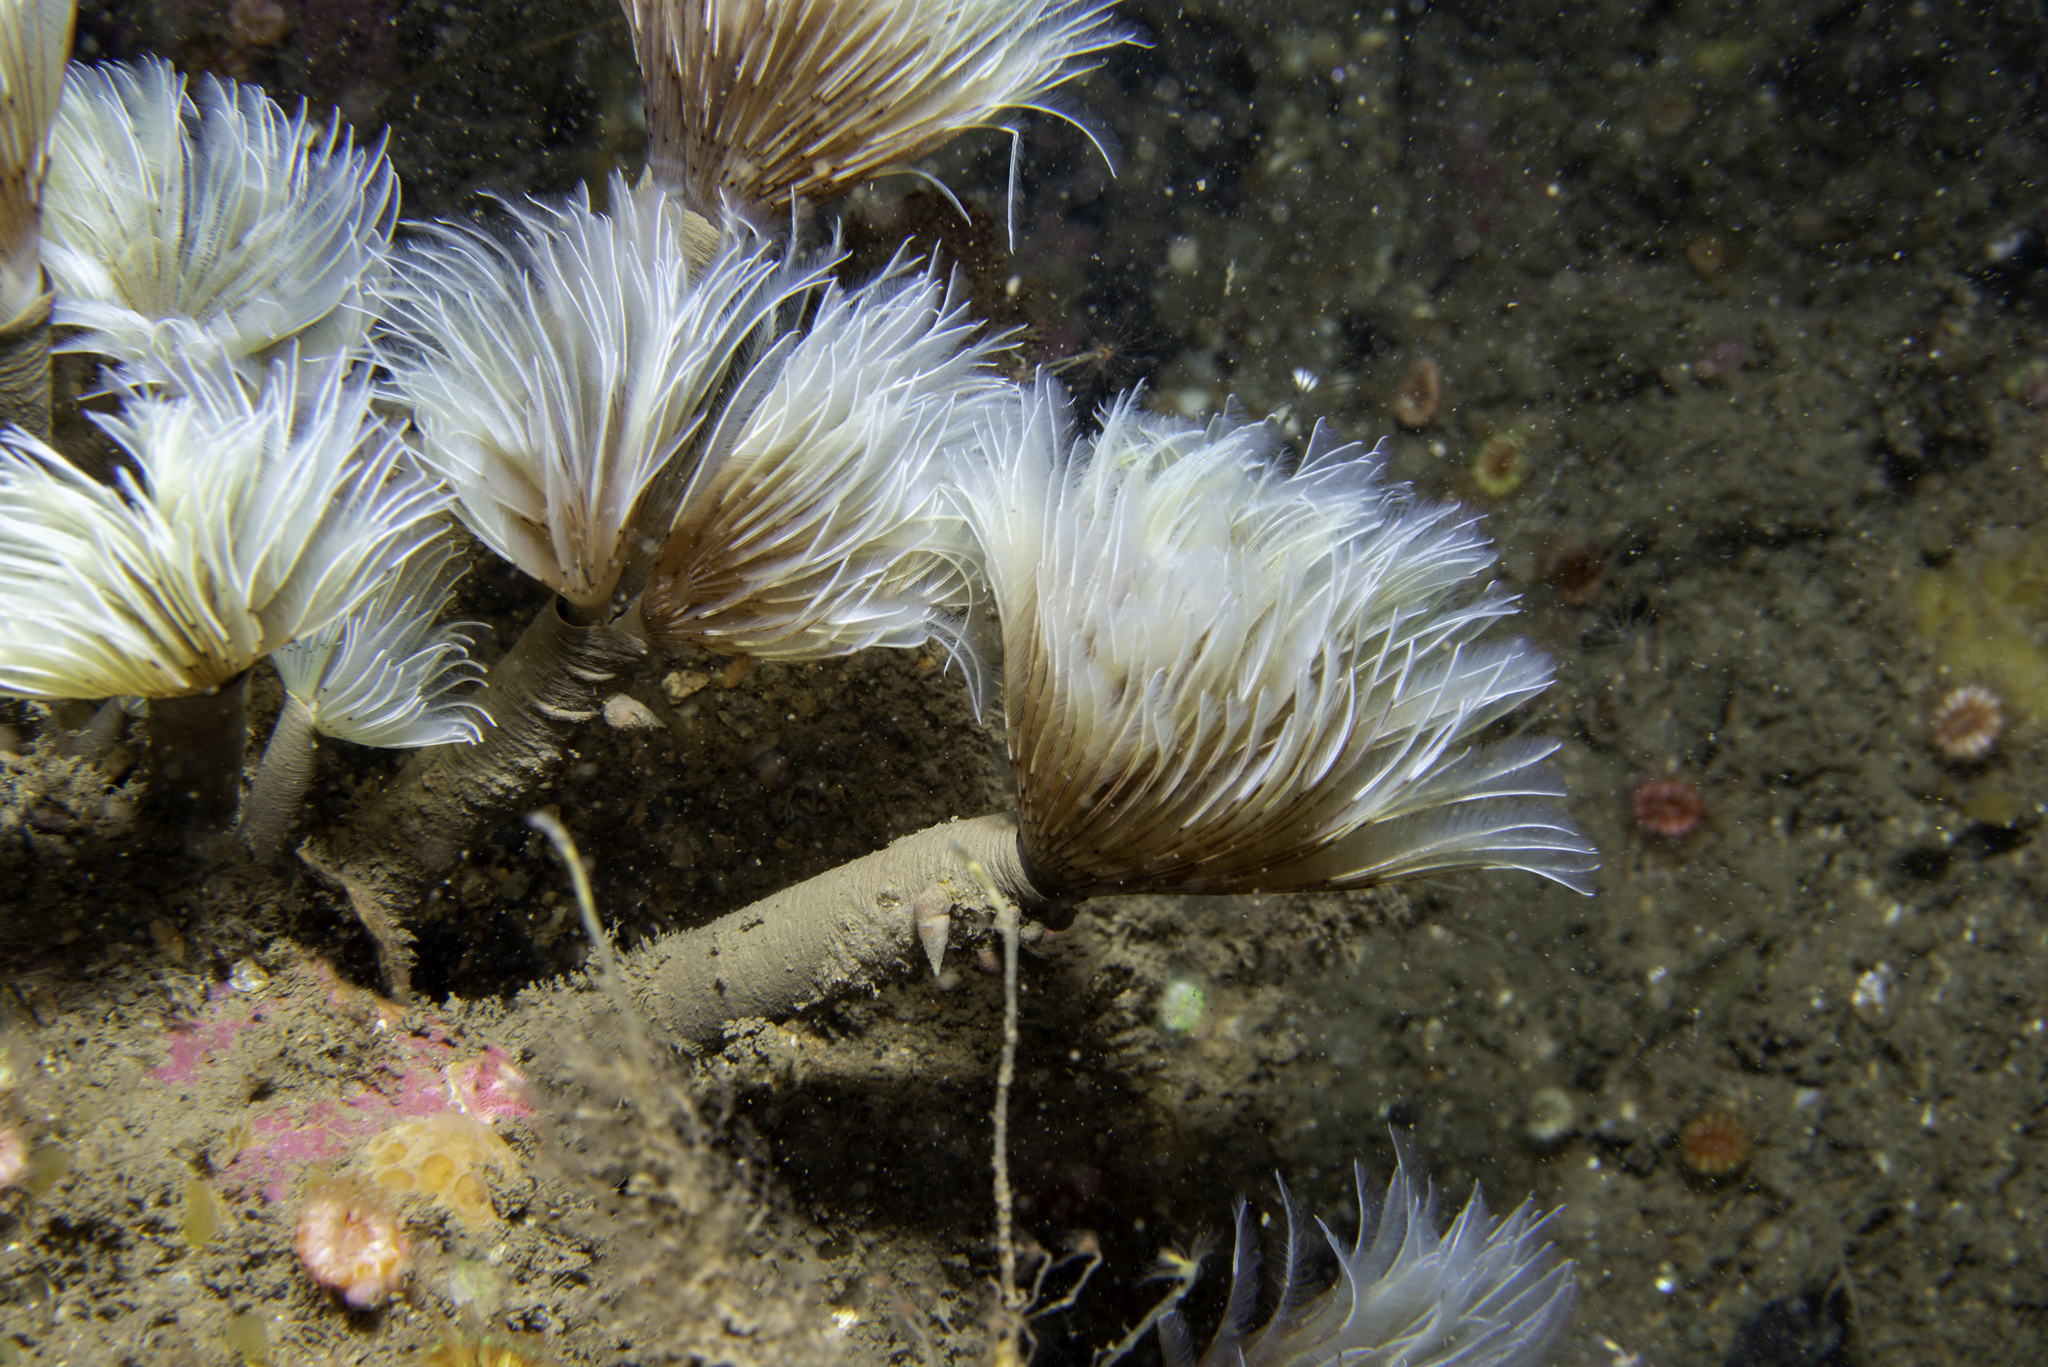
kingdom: Animalia
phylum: Annelida
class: Polychaeta
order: Sabellida
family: Sabellidae
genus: Bispira
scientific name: Bispira volutacornis
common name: Twin fan worm
